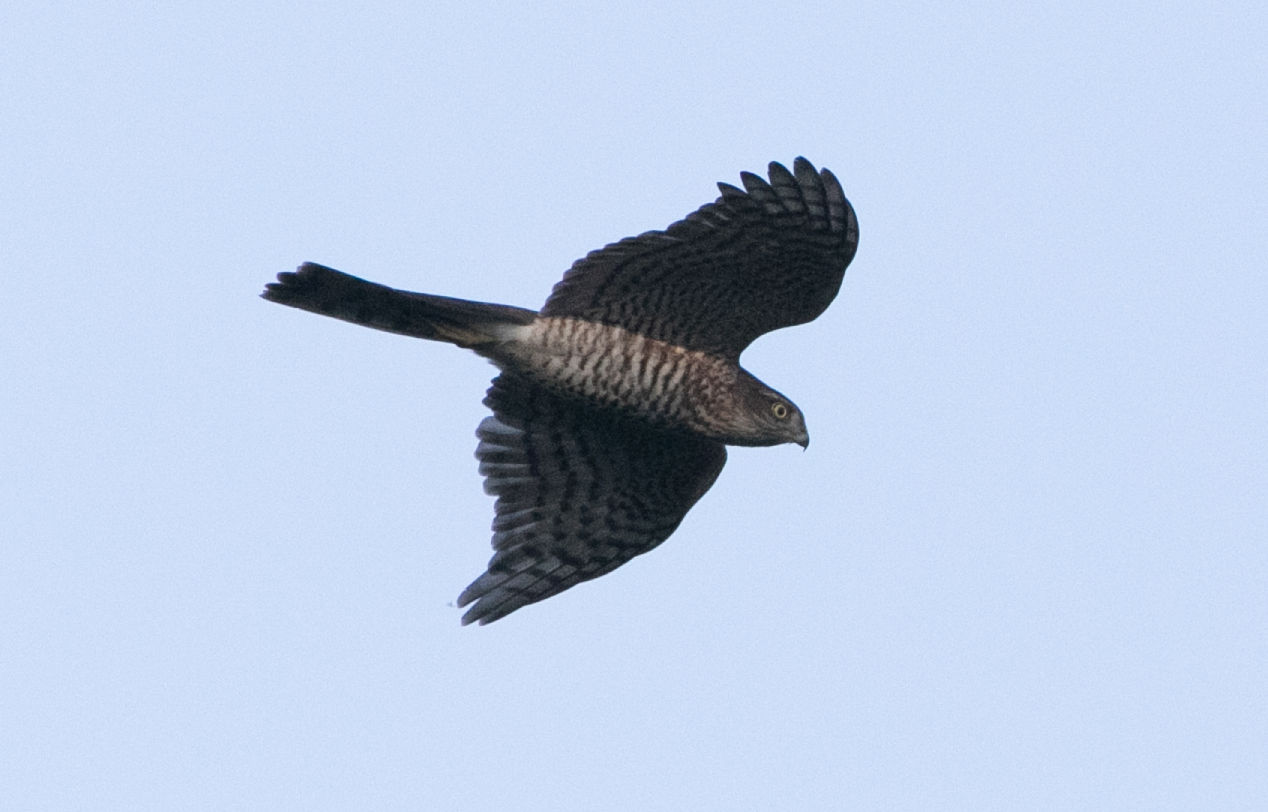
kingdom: Animalia
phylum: Chordata
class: Aves
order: Accipitriformes
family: Accipitridae
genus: Accipiter
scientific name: Accipiter nisus
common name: Eurasian sparrowhawk
